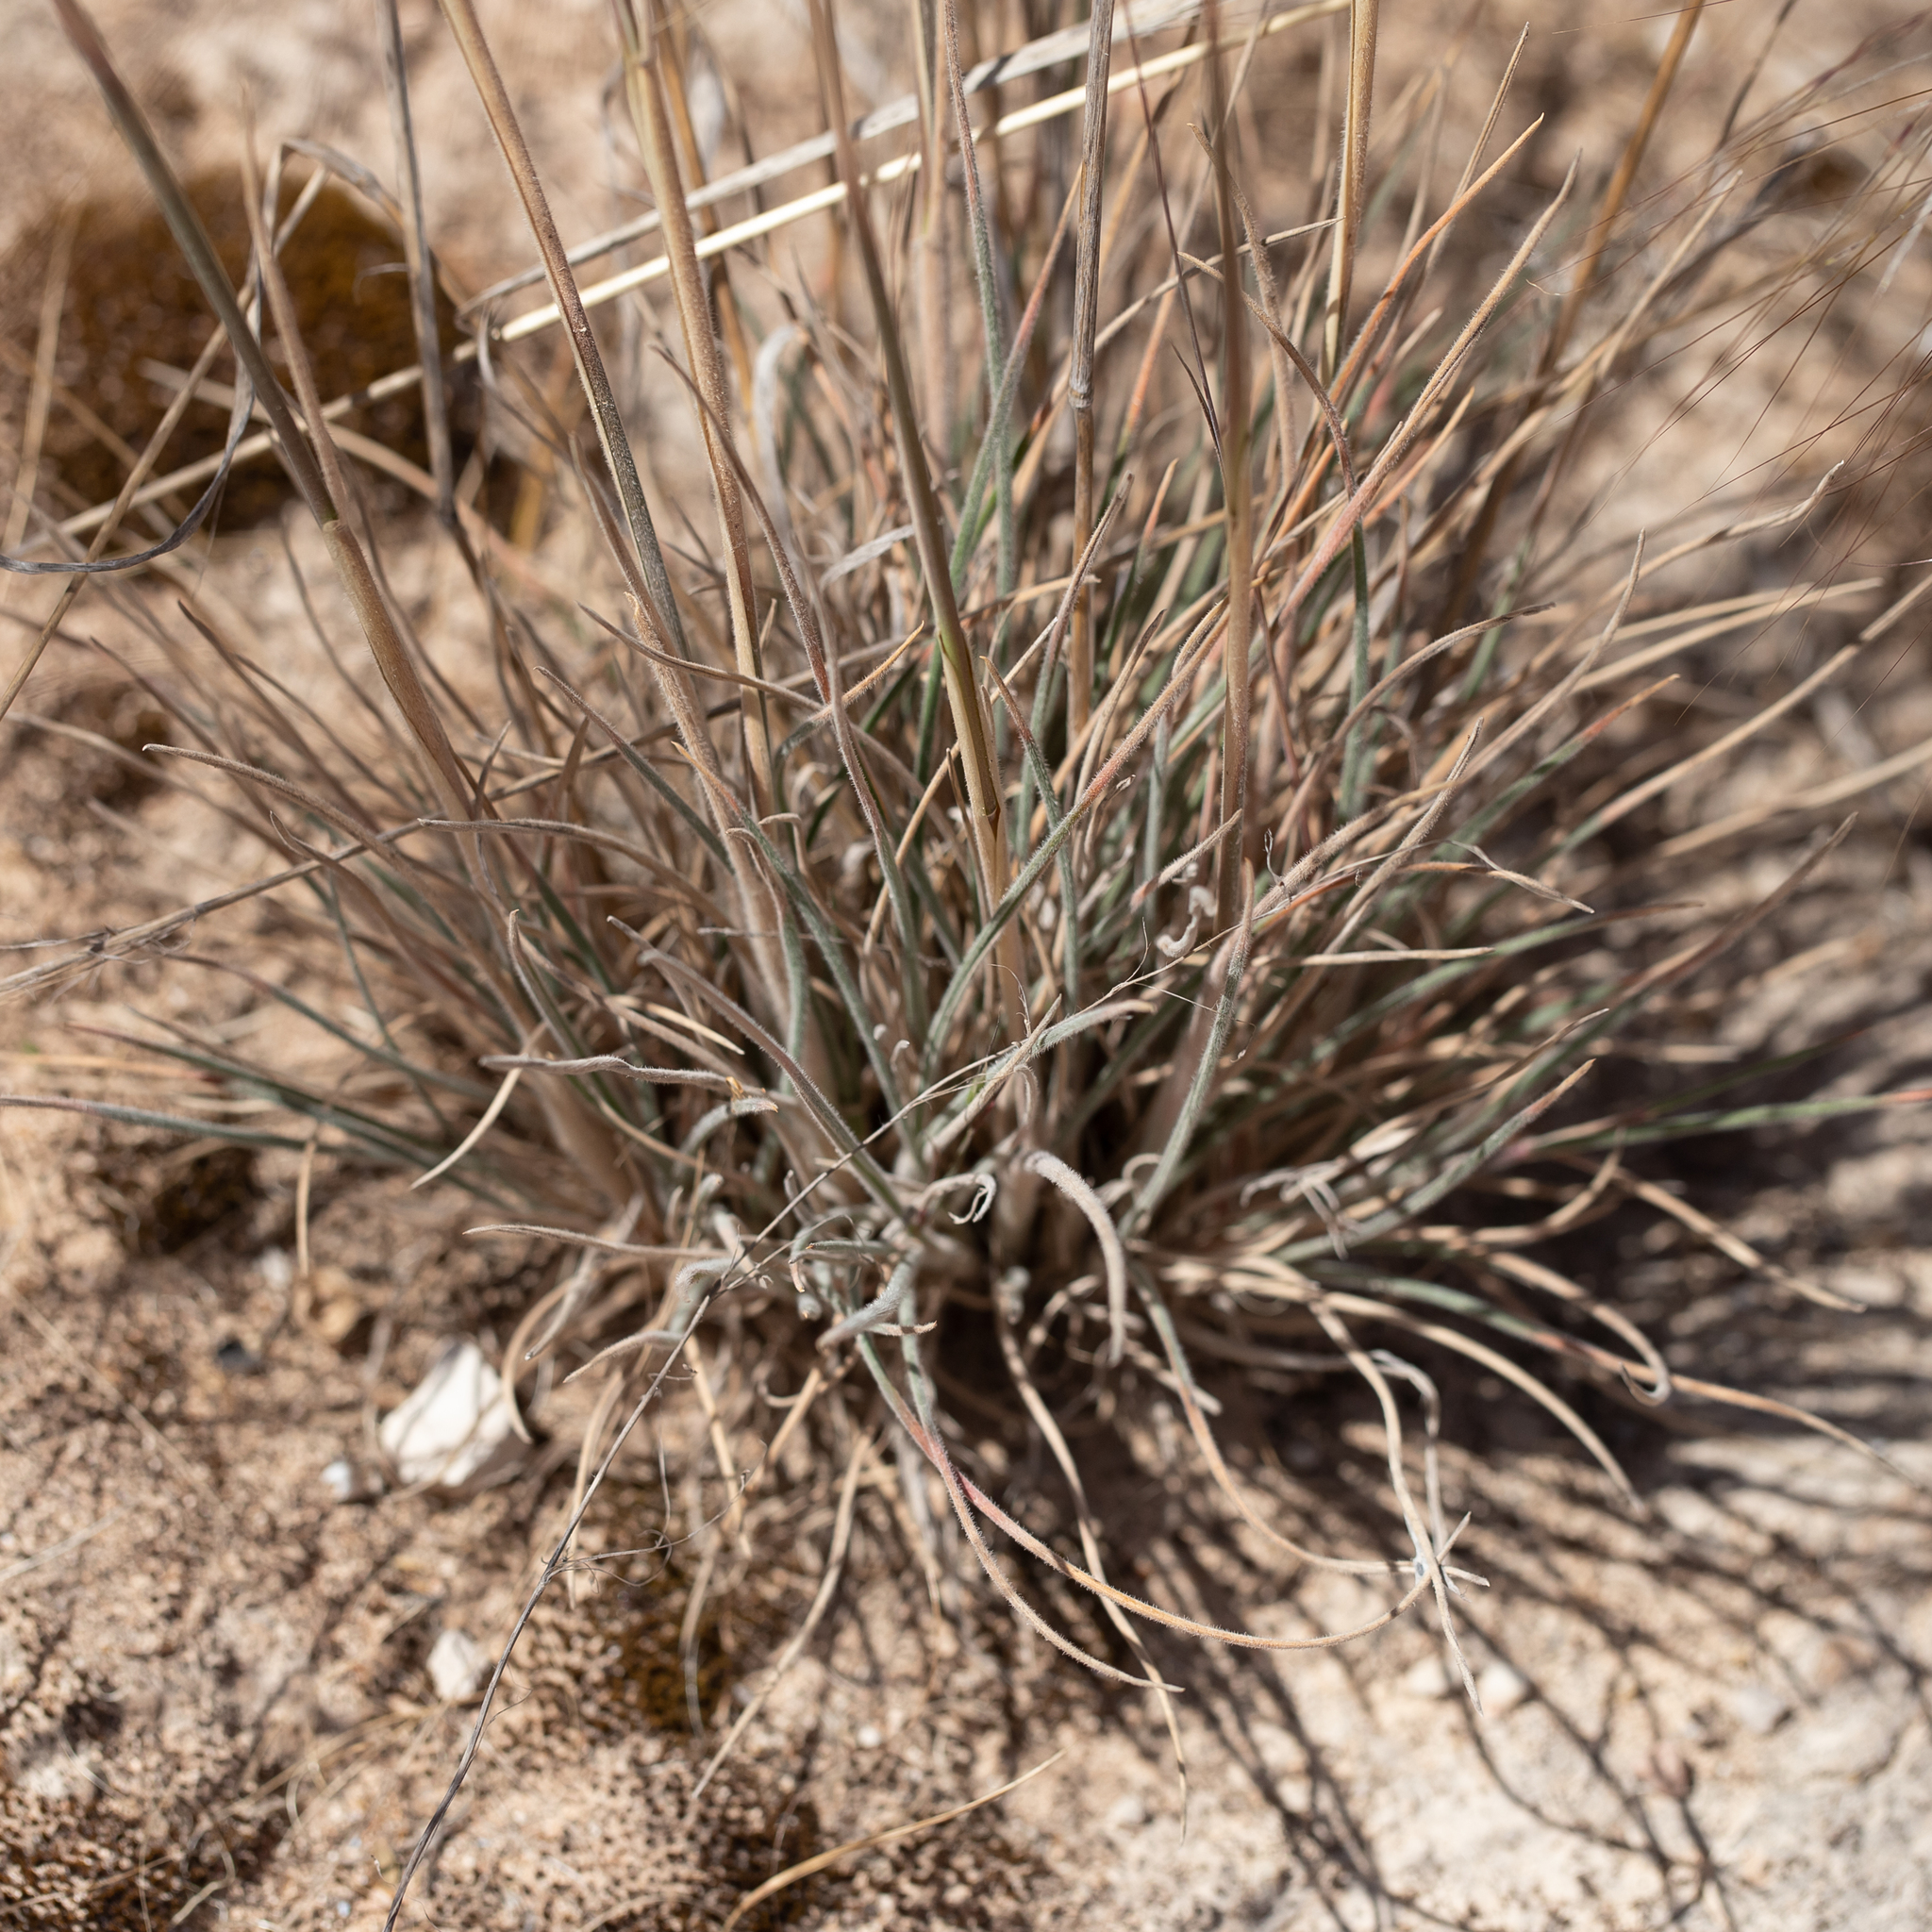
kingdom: Plantae
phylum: Tracheophyta
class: Liliopsida
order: Poales
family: Poaceae
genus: Austrostipa
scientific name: Austrostipa drummondii
